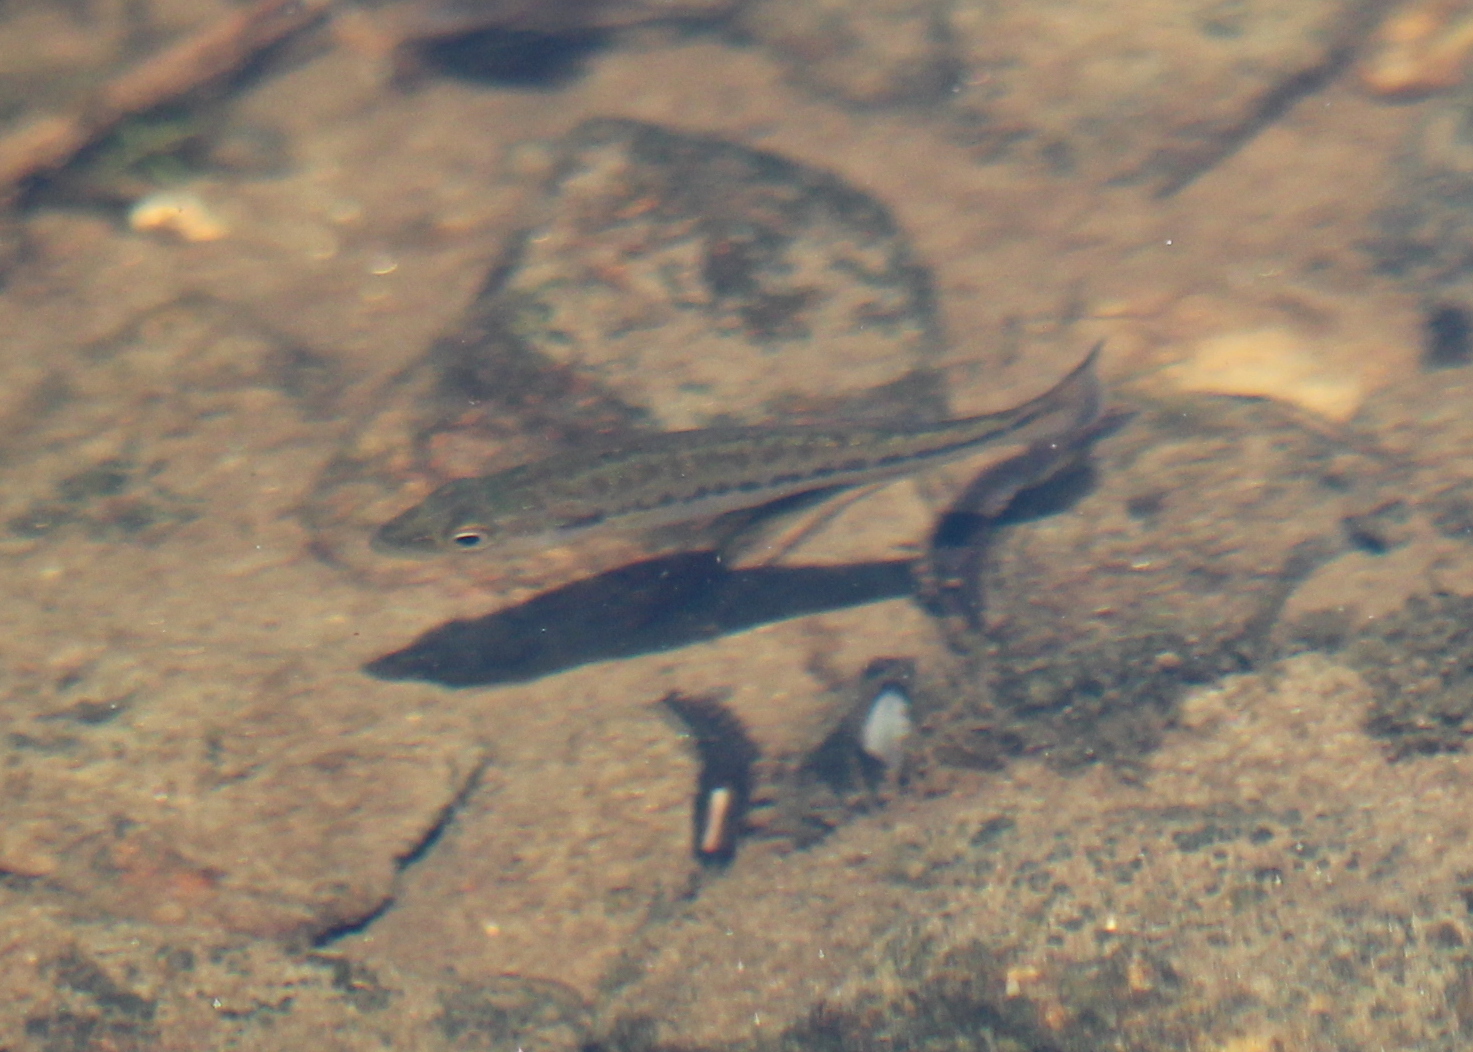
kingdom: Animalia
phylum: Chordata
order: Perciformes
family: Centrarchidae
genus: Micropterus
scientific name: Micropterus
